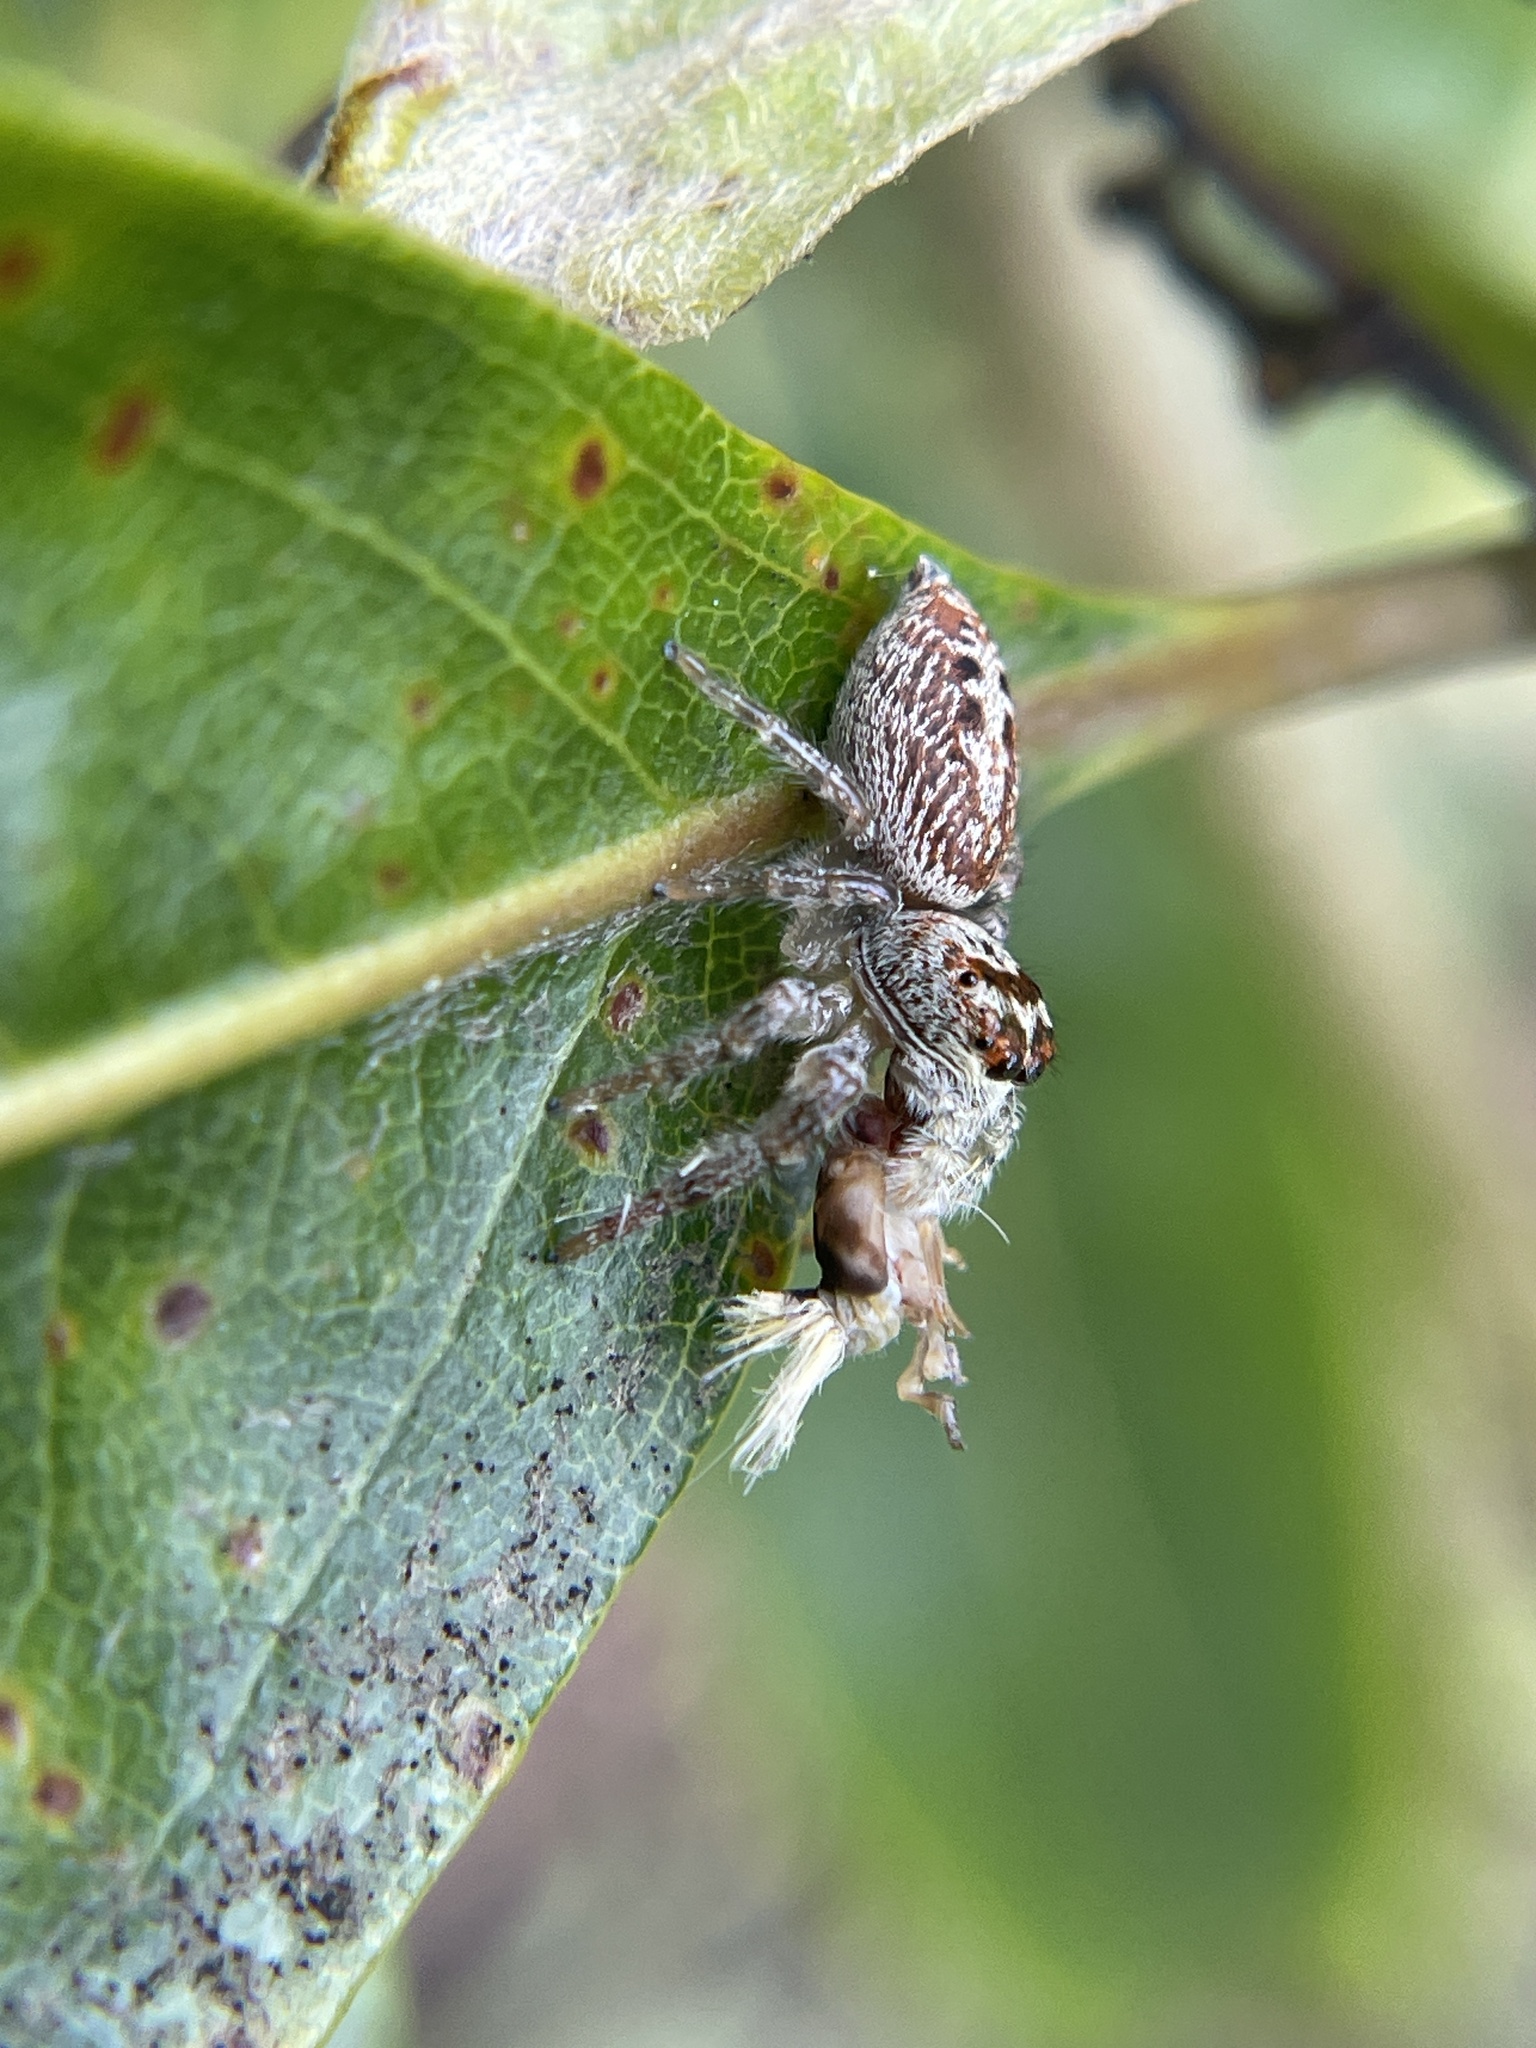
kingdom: Animalia
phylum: Arthropoda
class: Insecta
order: Hemiptera
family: Ricaniidae
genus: Scolypopa
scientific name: Scolypopa australis
